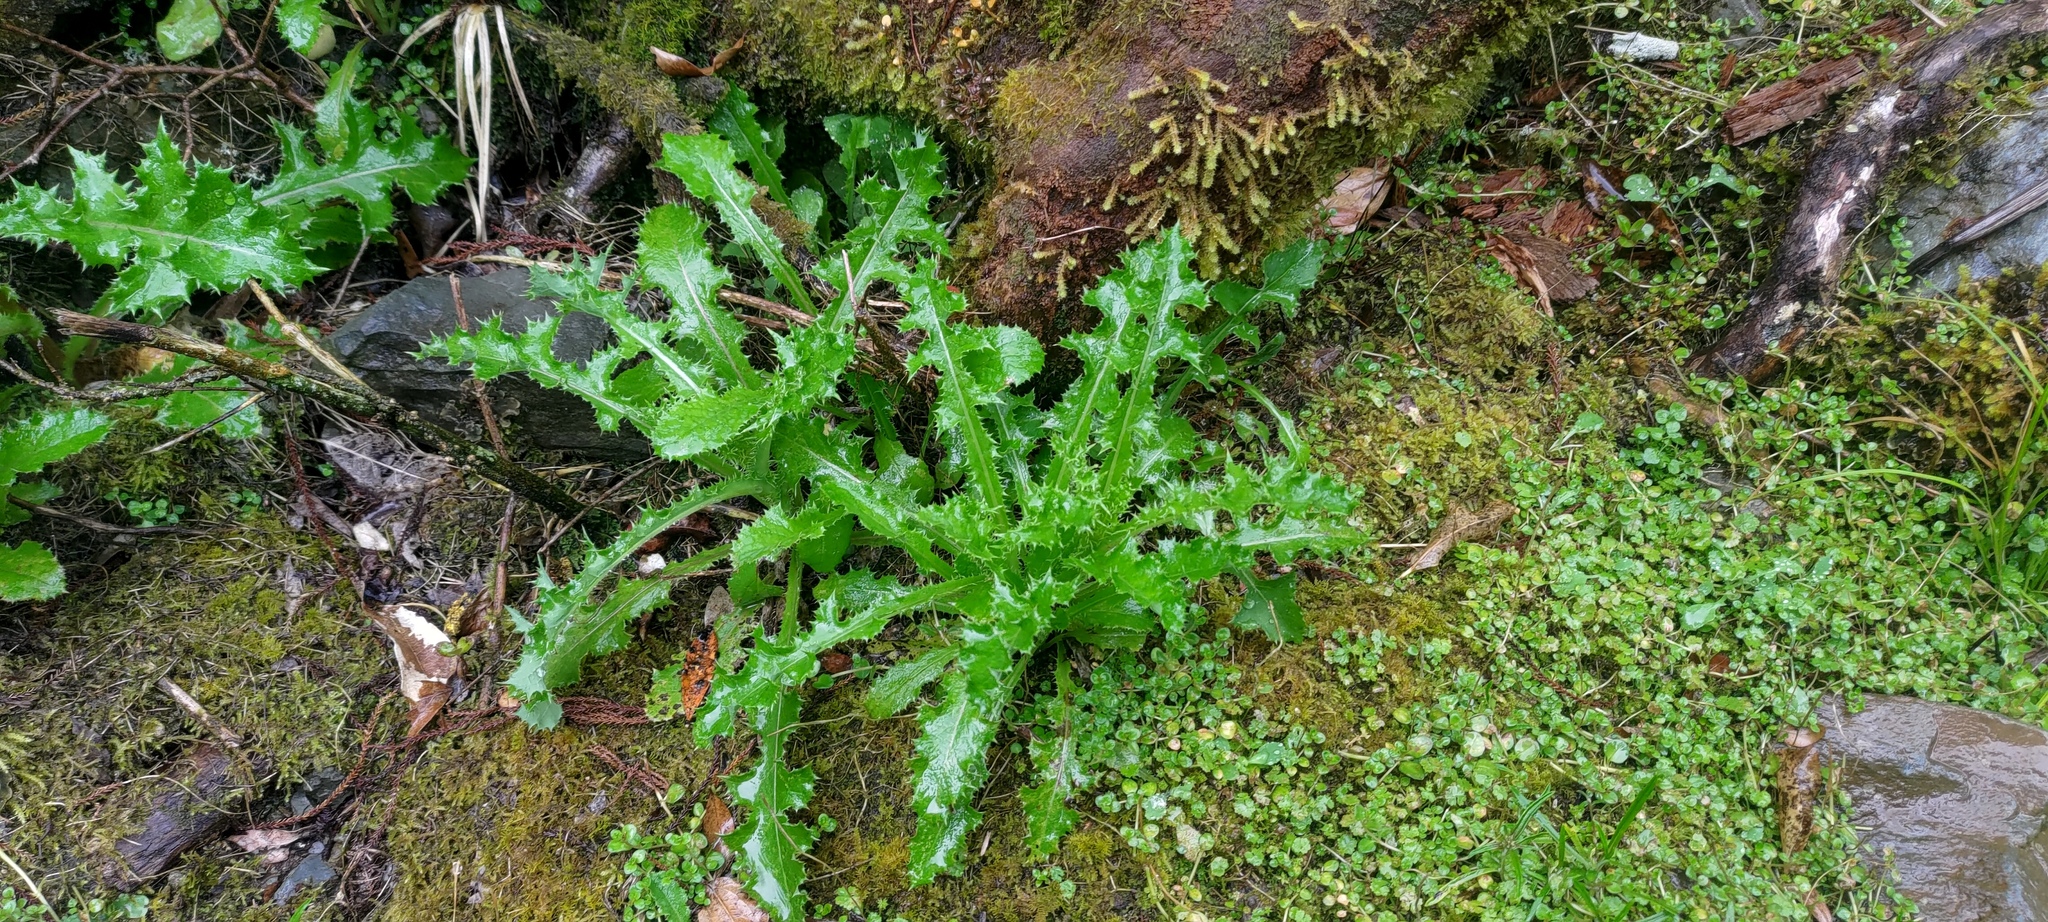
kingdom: Plantae
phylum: Tracheophyta
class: Magnoliopsida
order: Asterales
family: Asteraceae
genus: Sonchus
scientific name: Sonchus asper
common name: Prickly sow-thistle
